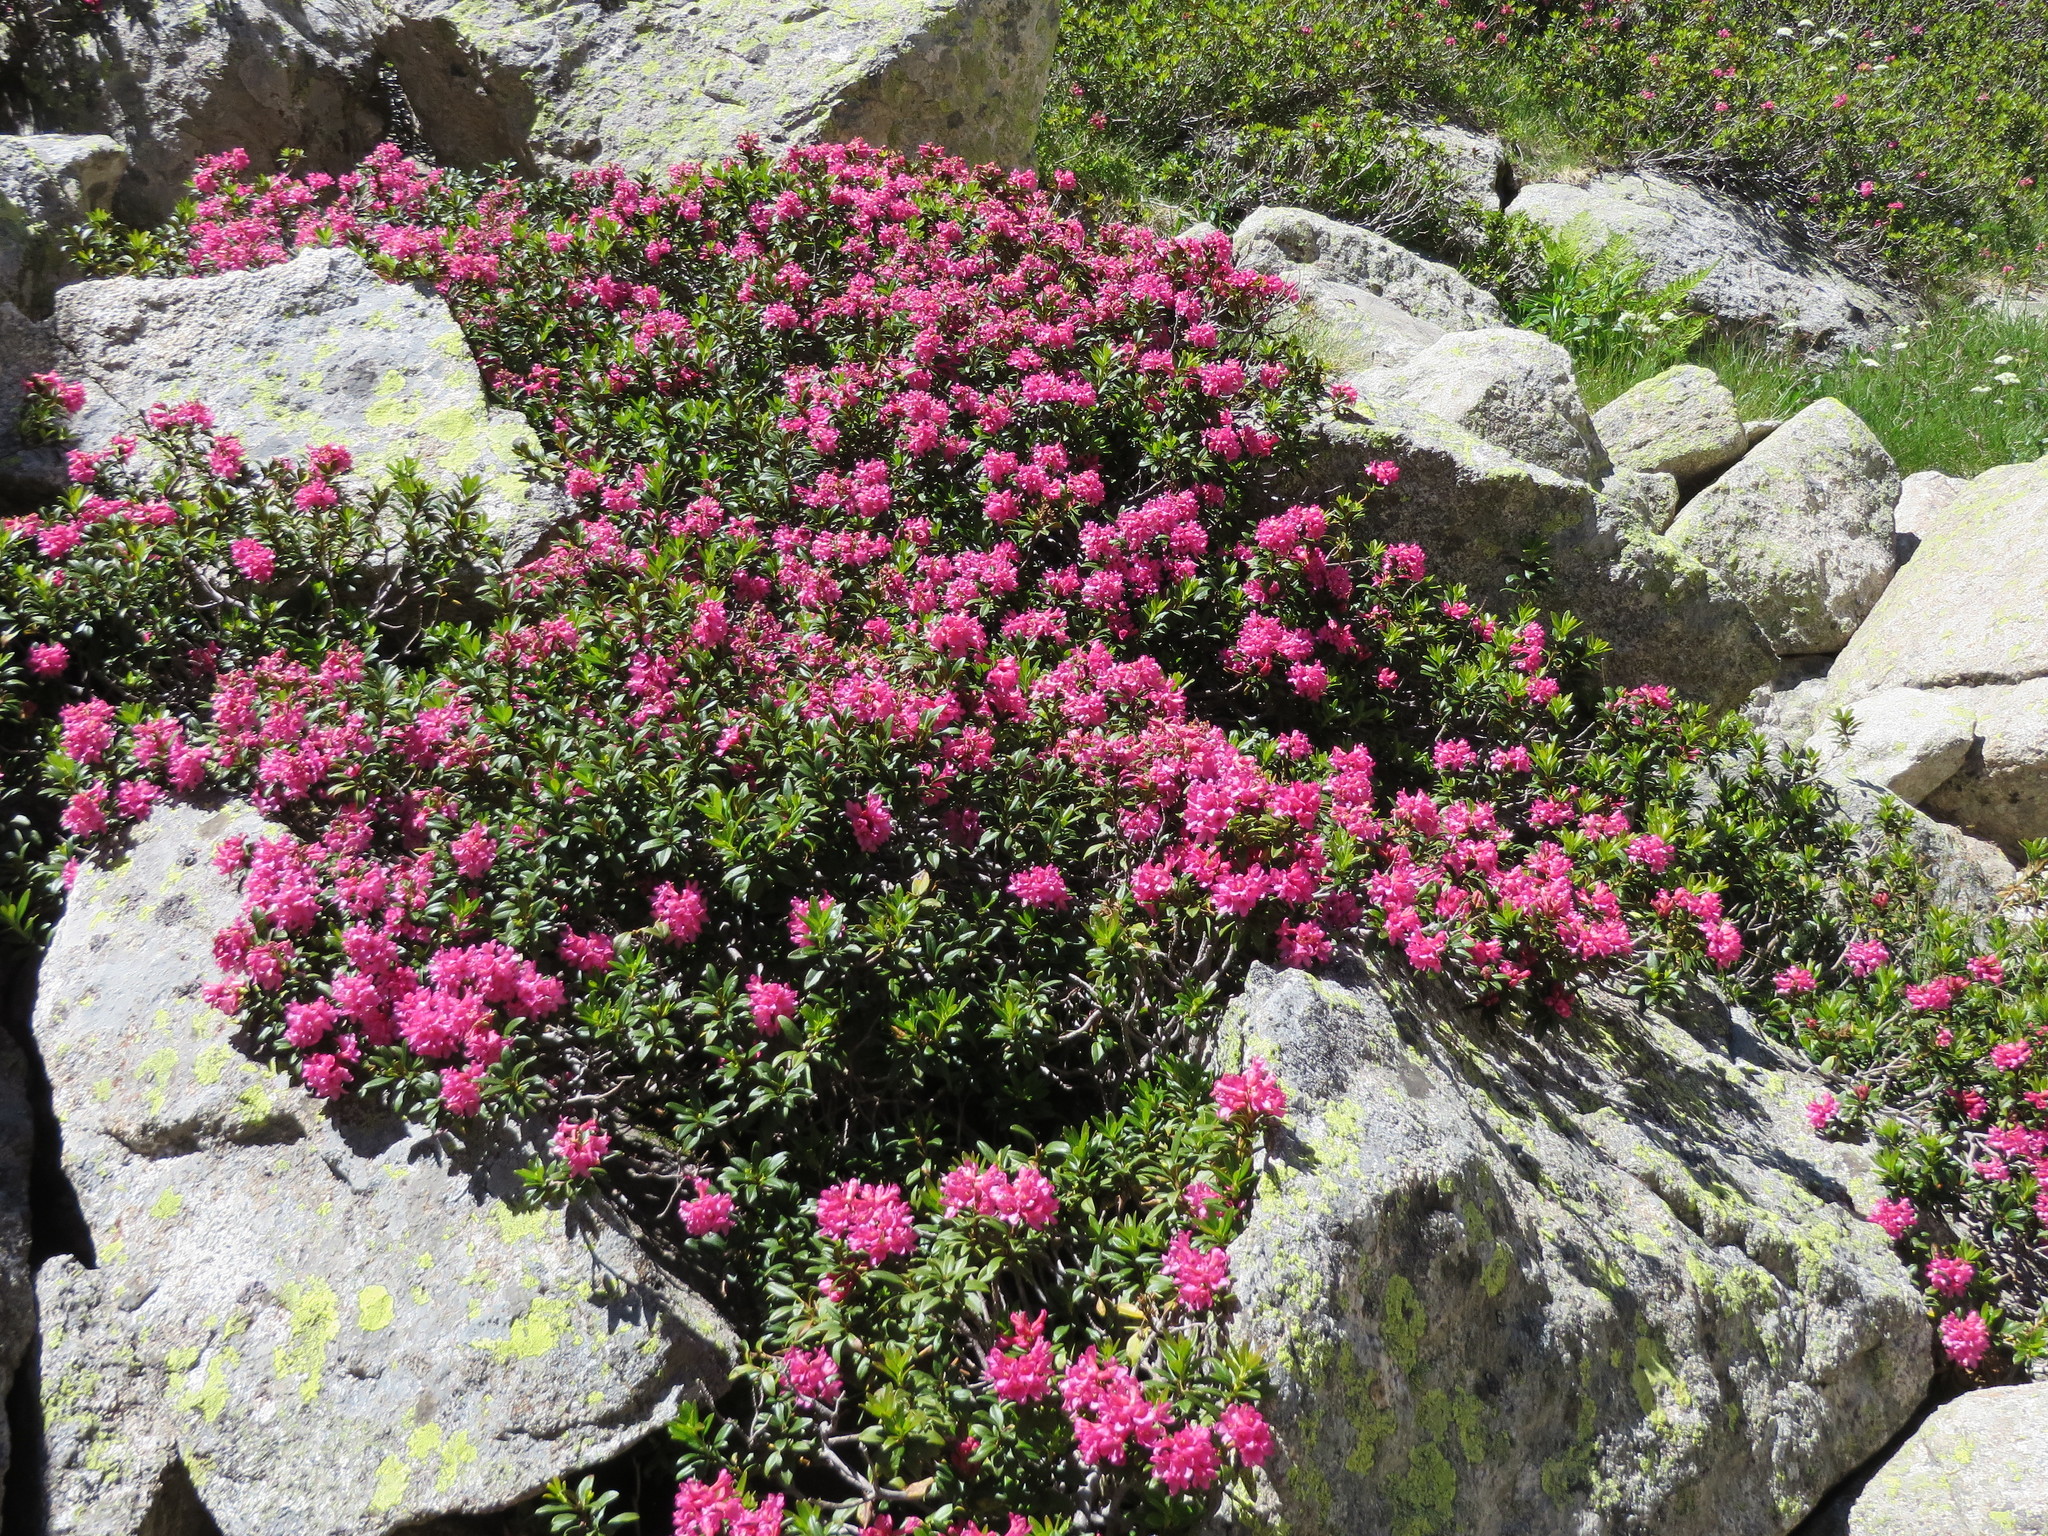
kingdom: Plantae
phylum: Tracheophyta
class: Magnoliopsida
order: Ericales
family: Ericaceae
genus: Rhododendron
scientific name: Rhododendron ferrugineum
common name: Alpenrose
